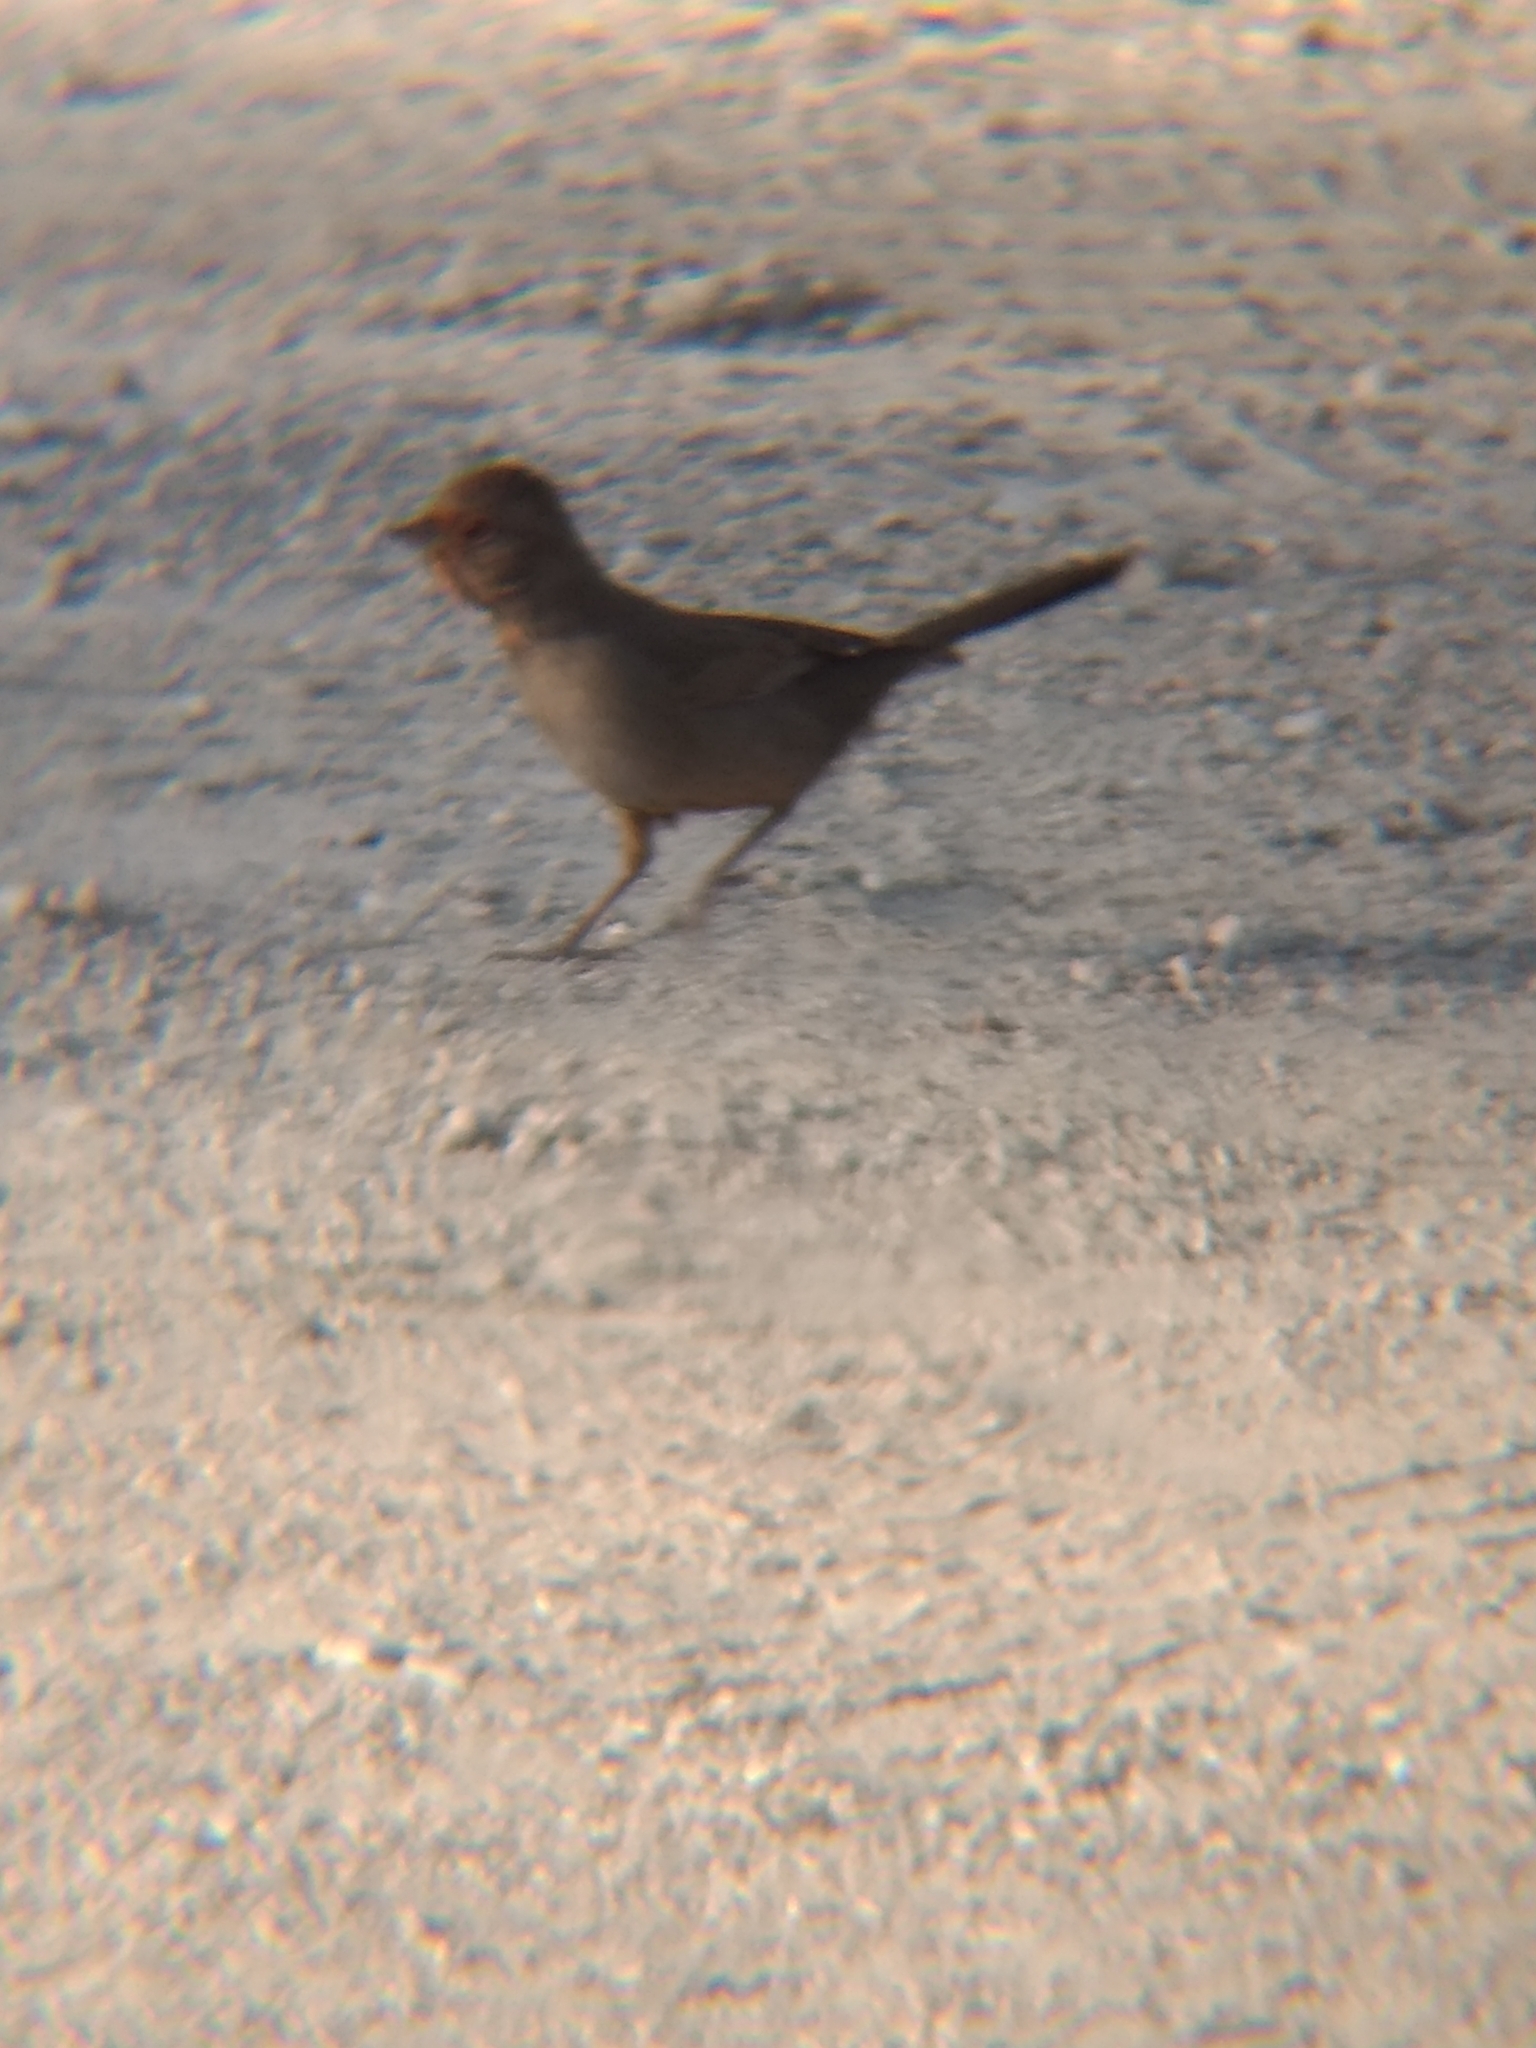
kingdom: Animalia
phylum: Chordata
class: Aves
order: Passeriformes
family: Passerellidae
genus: Melozone
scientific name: Melozone crissalis
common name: California towhee
